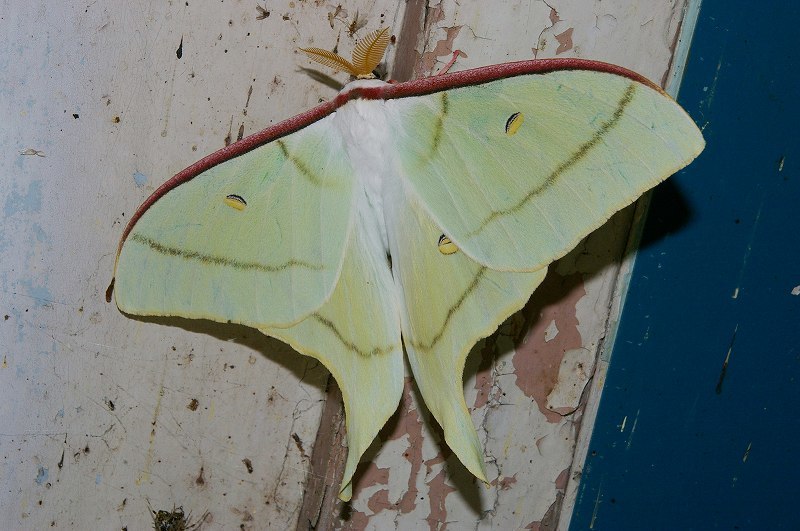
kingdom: Animalia
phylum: Arthropoda
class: Insecta
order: Lepidoptera
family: Saturniidae
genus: Actias
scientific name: Actias aliena
